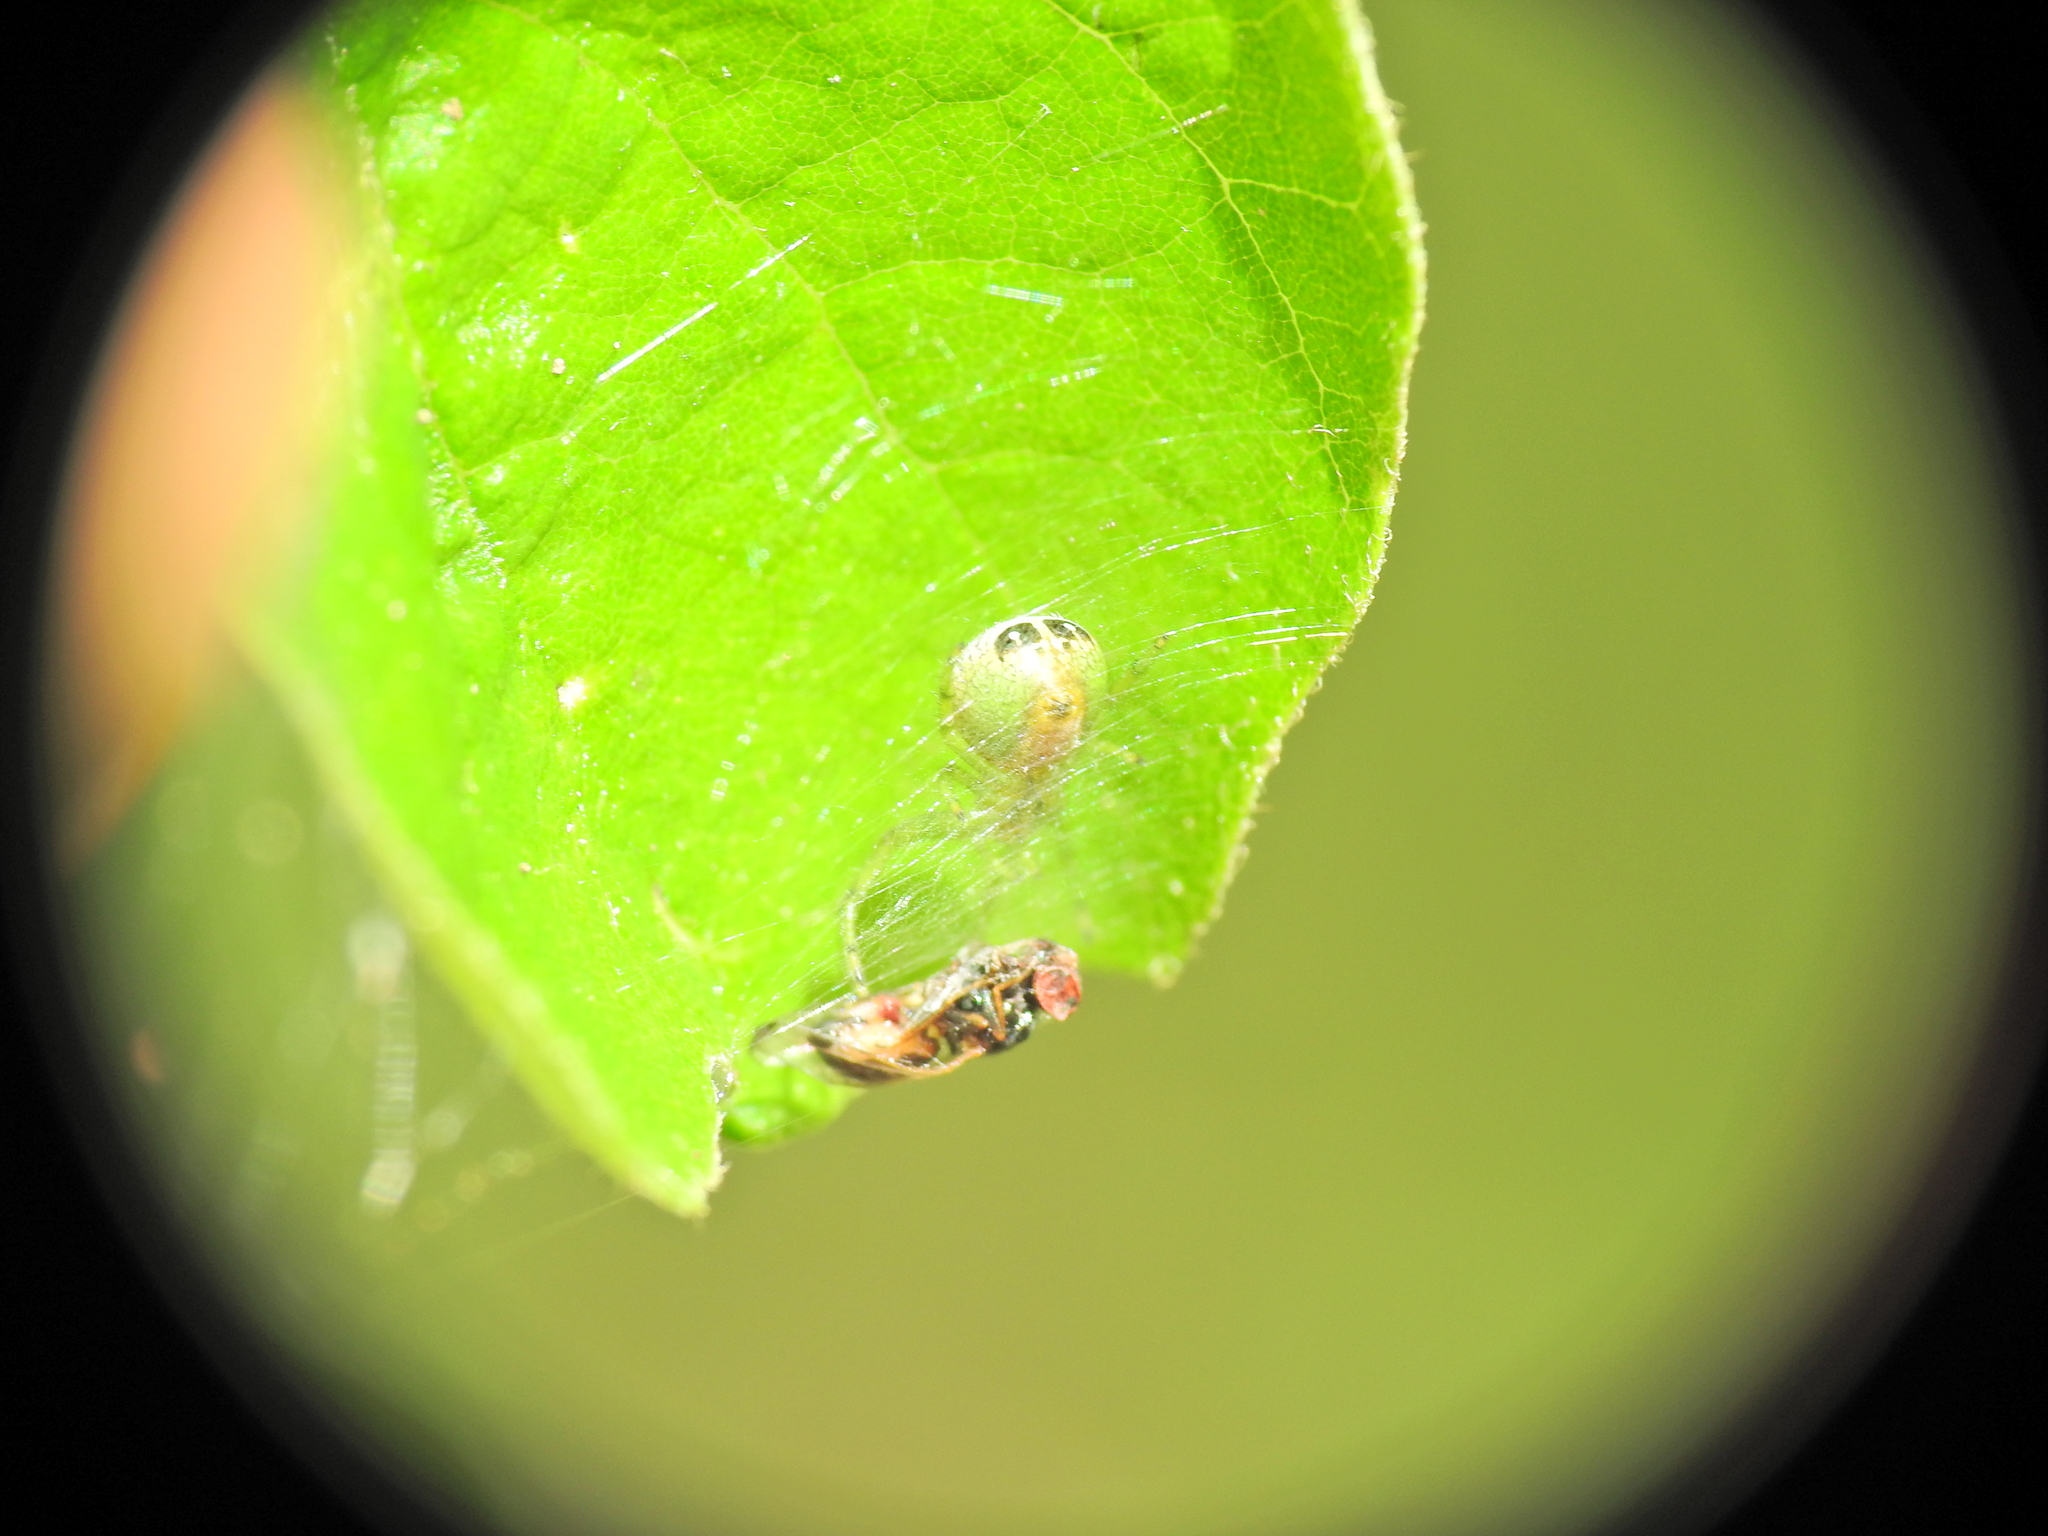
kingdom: Animalia
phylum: Arthropoda
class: Arachnida
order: Araneae
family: Araneidae
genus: Bijoaraneus
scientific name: Bijoaraneus praesignis
